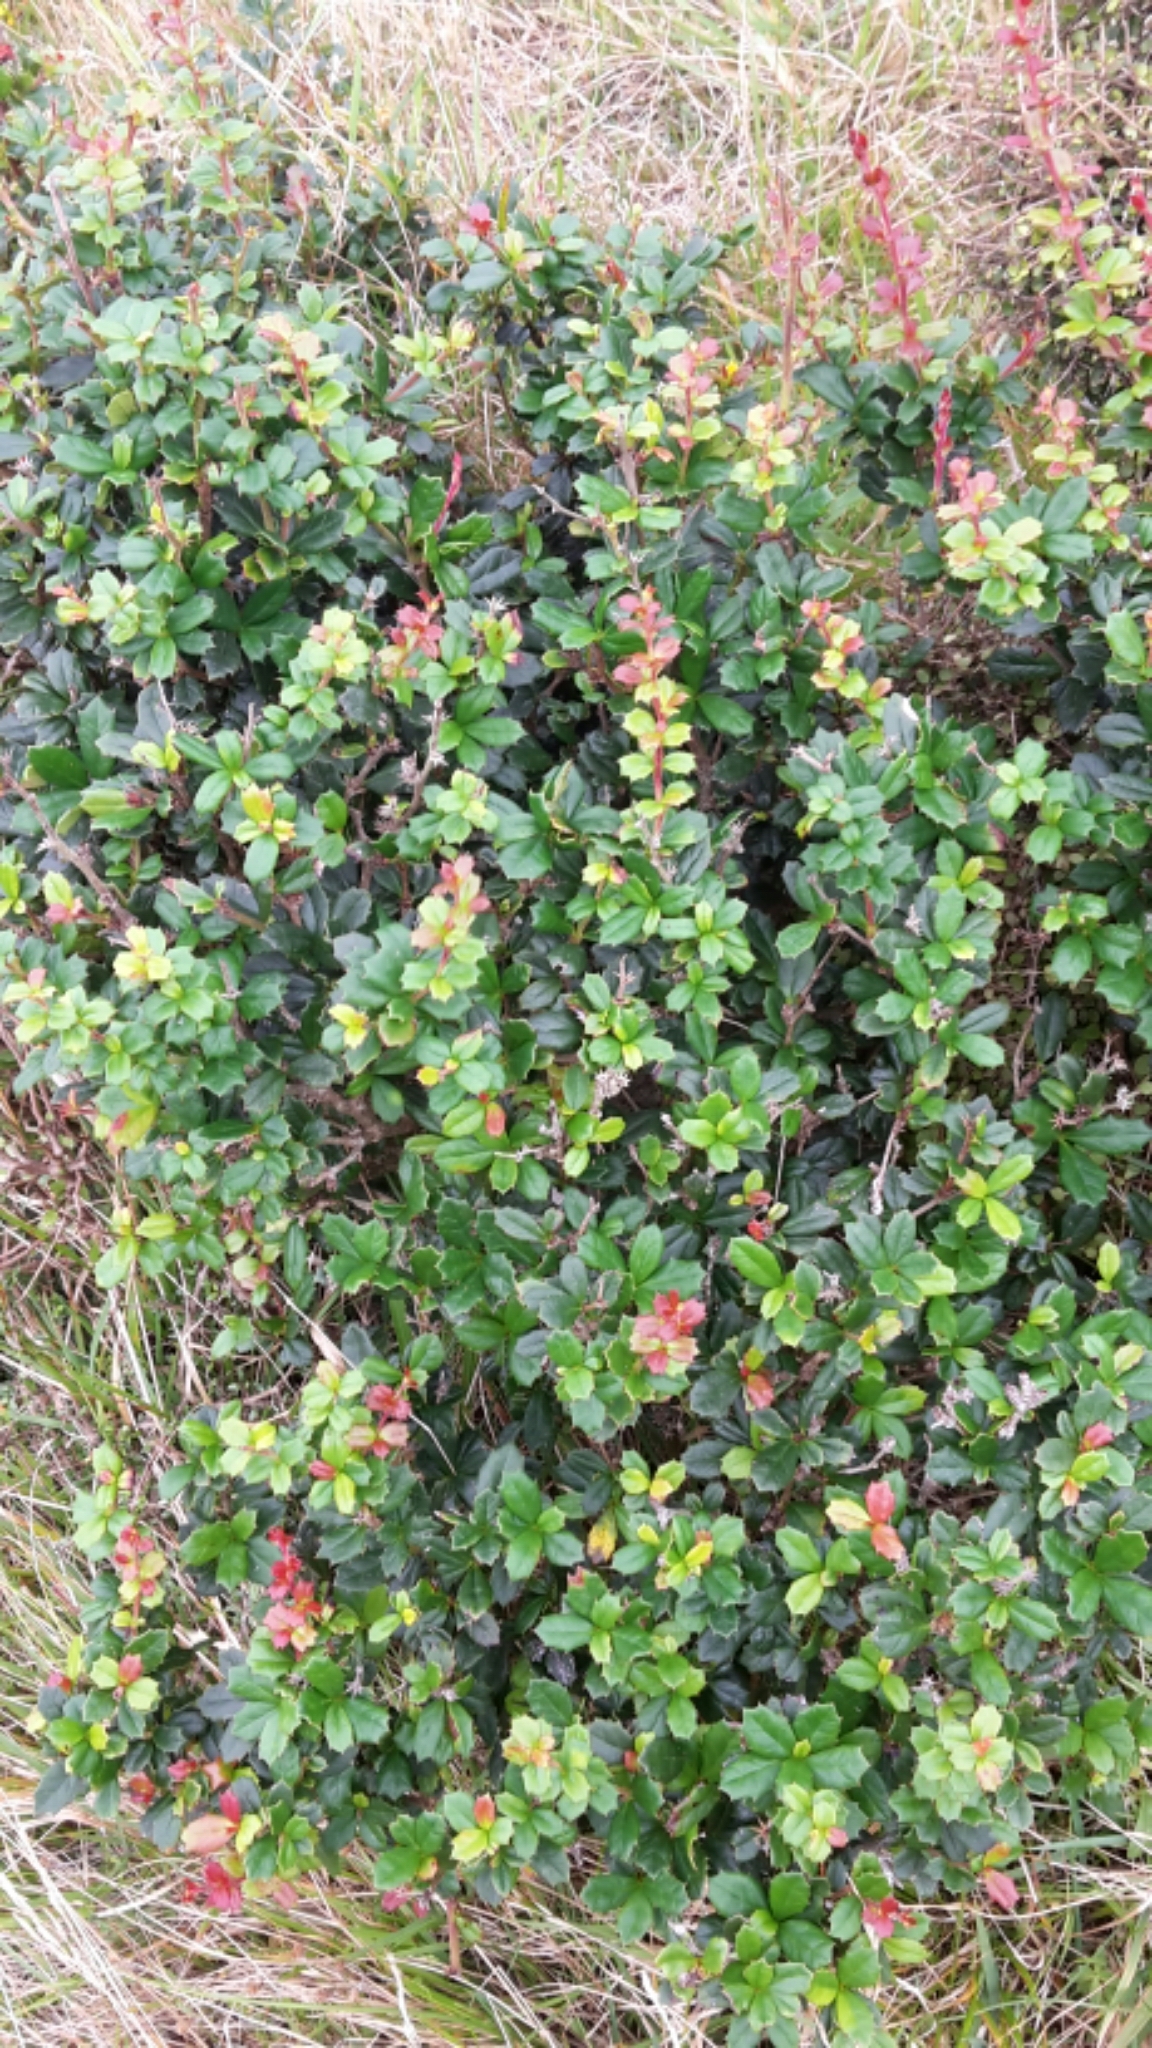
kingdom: Plantae
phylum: Tracheophyta
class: Magnoliopsida
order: Ranunculales
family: Berberidaceae
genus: Berberis
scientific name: Berberis darwinii
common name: Darwin's barberry
